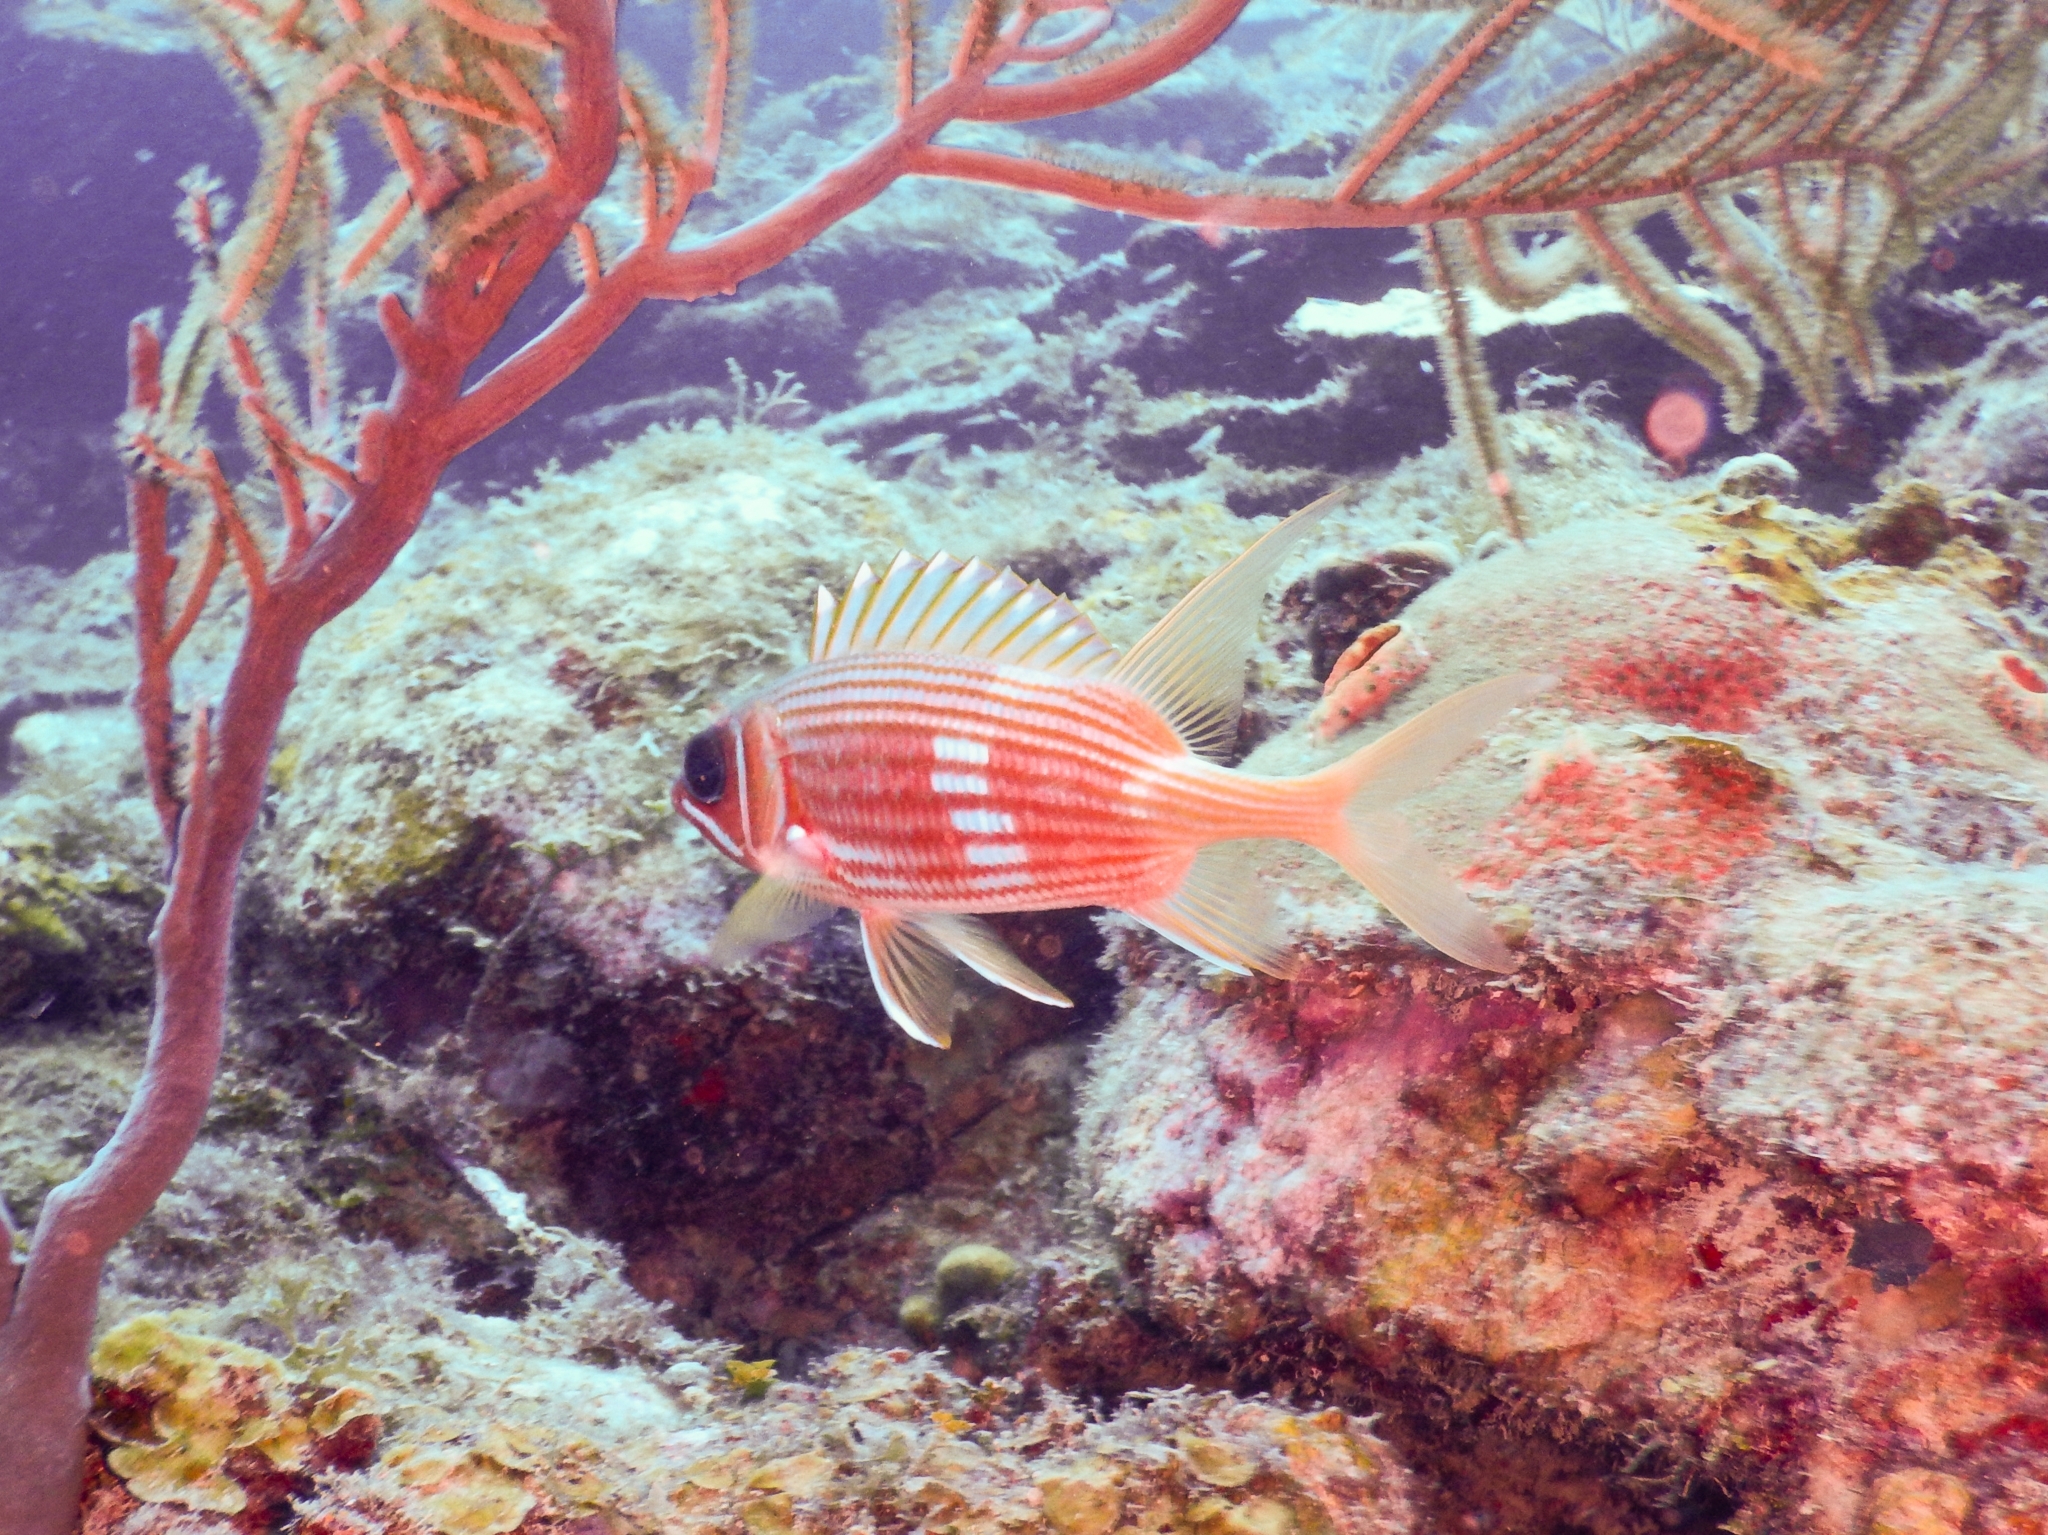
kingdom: Animalia
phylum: Chordata
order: Beryciformes
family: Holocentridae
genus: Holocentrus
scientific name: Holocentrus rufus
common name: Longspine squirrelfish
